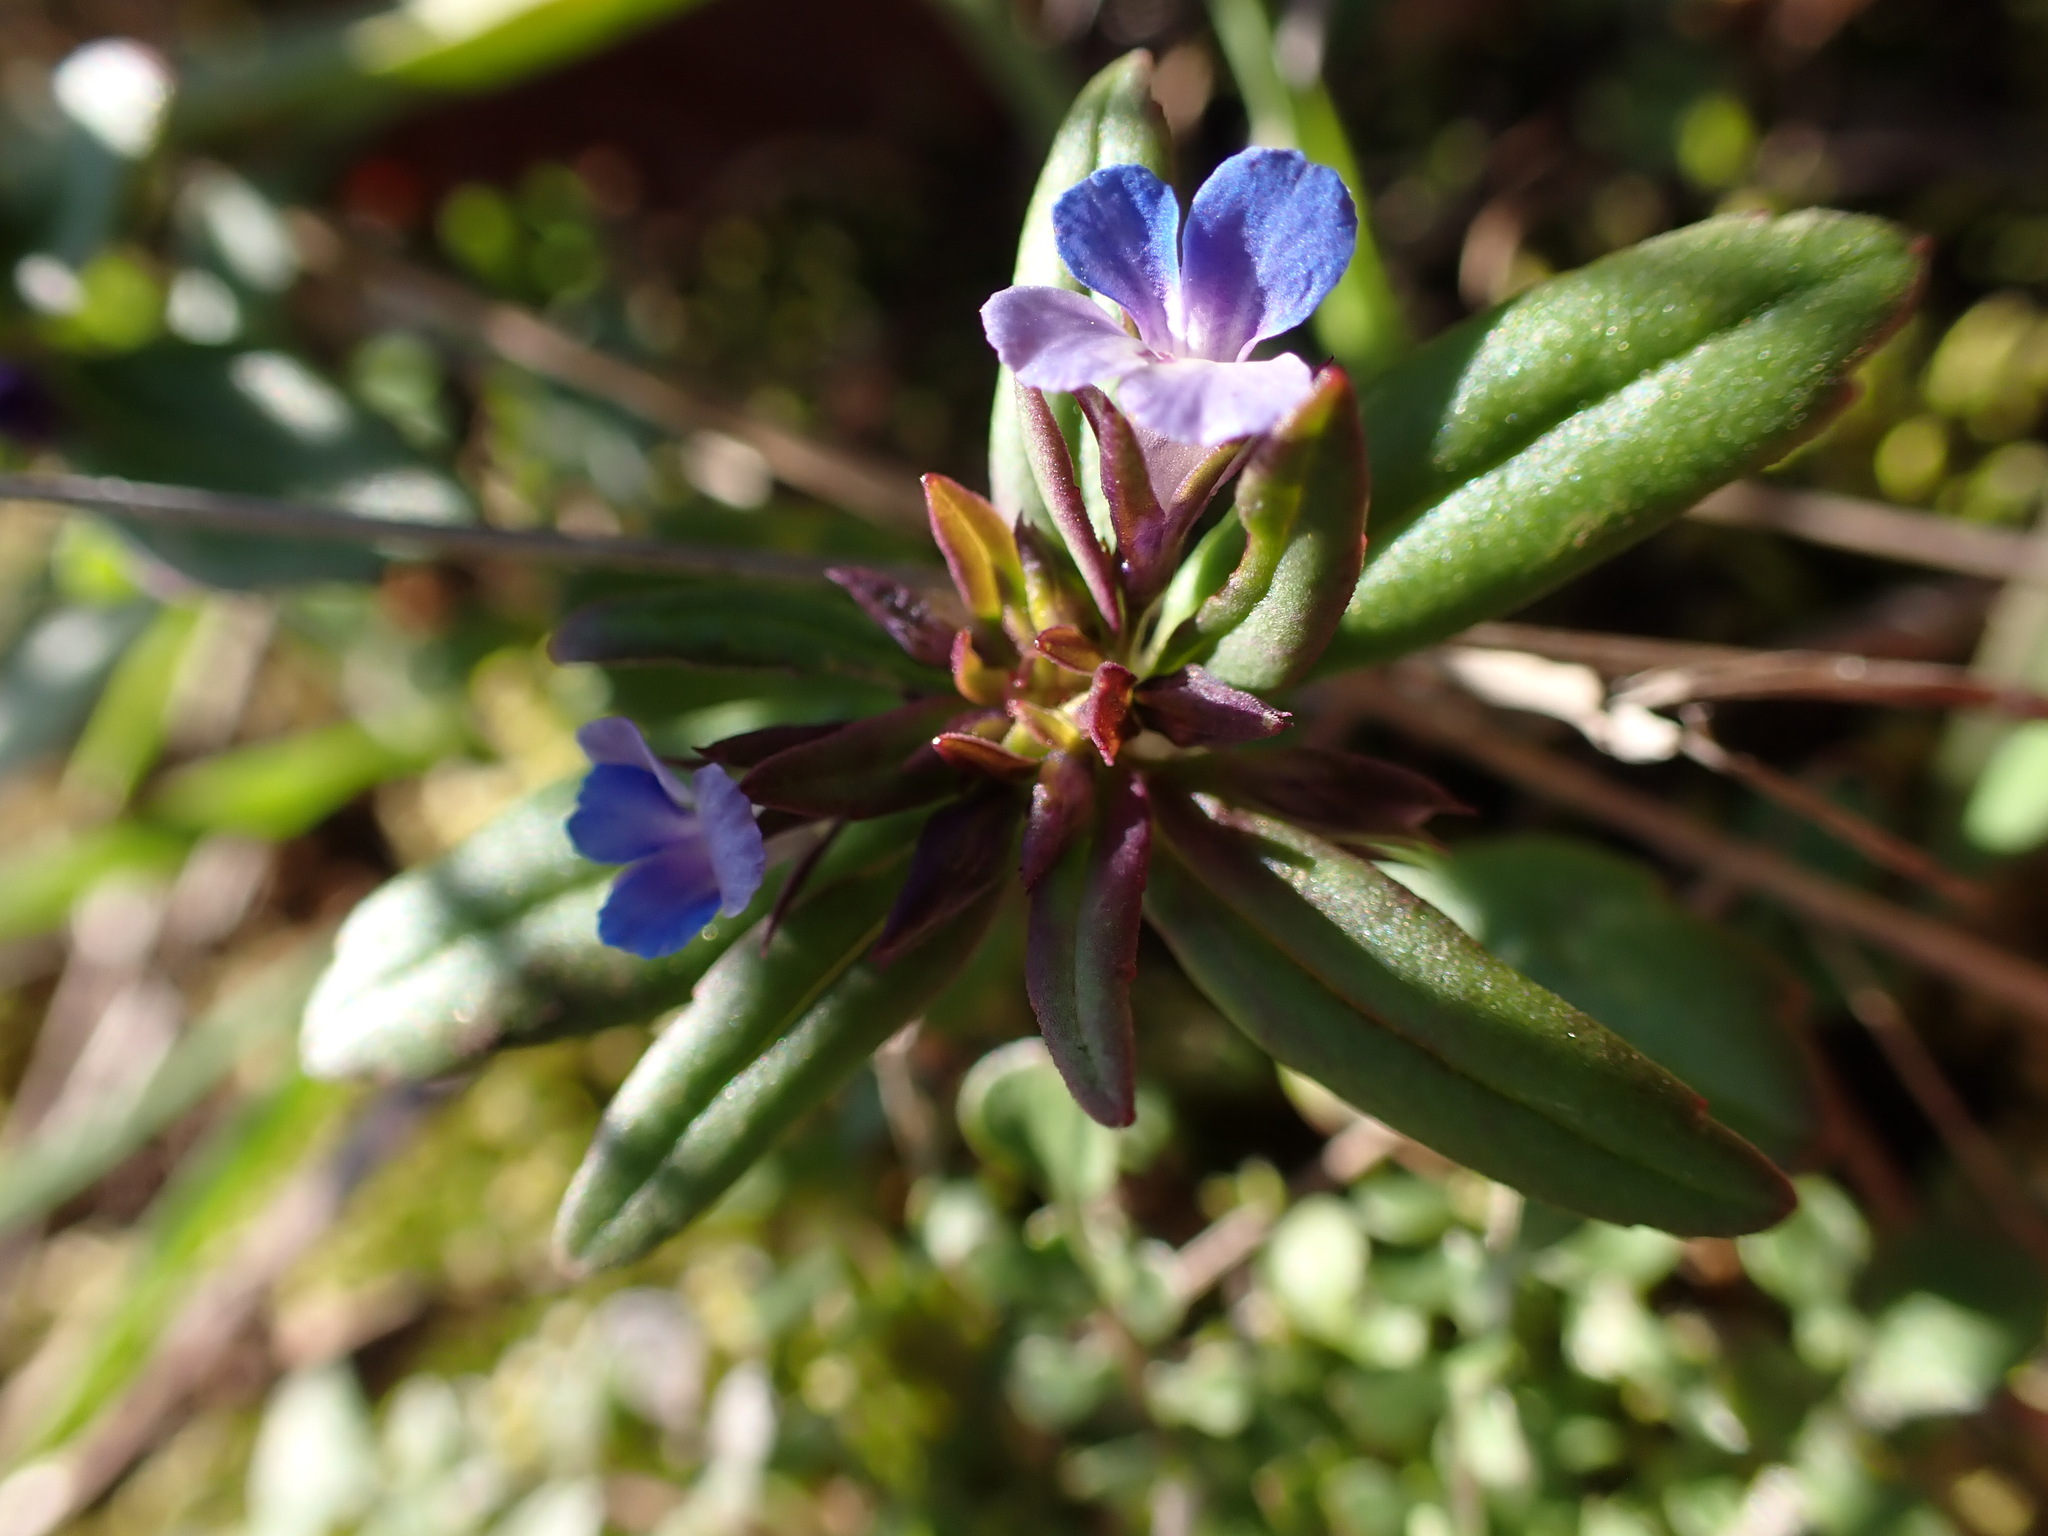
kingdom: Plantae
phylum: Tracheophyta
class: Magnoliopsida
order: Lamiales
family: Plantaginaceae
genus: Collinsia
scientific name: Collinsia parviflora
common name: Blue-lips
